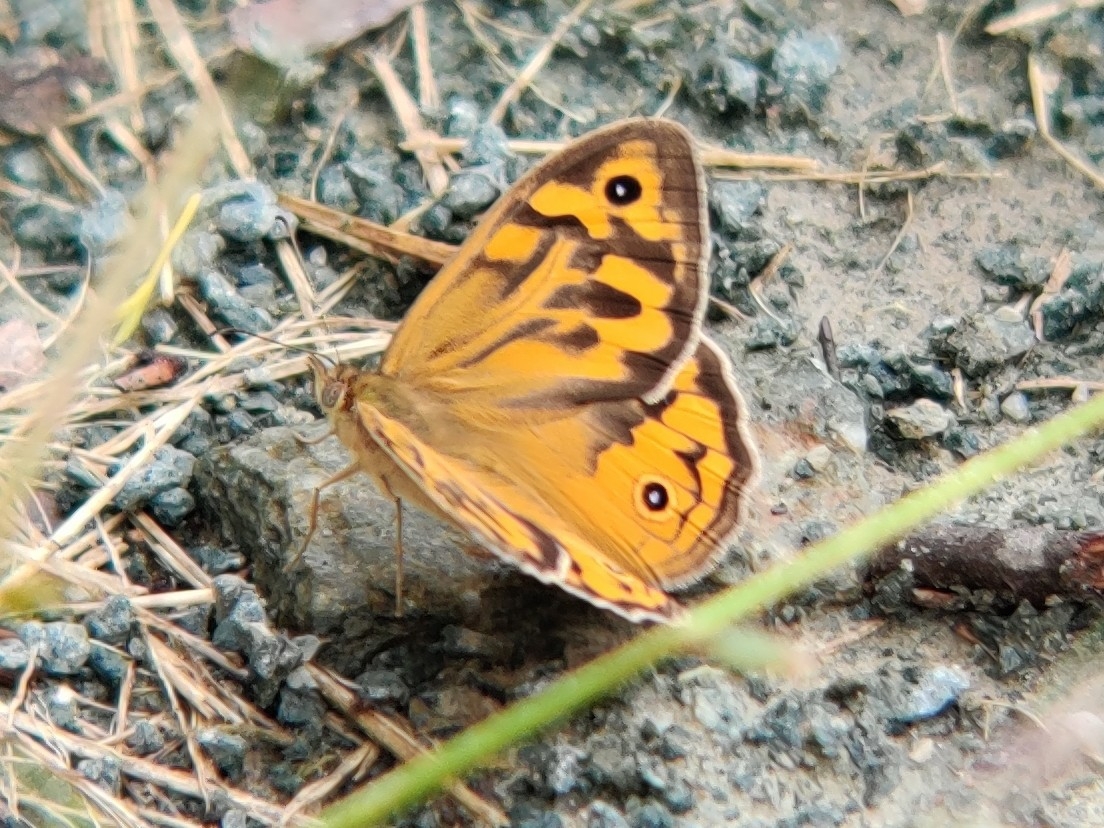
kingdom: Animalia
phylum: Arthropoda
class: Insecta
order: Lepidoptera
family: Nymphalidae
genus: Heteronympha
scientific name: Heteronympha merope
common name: Common brown
